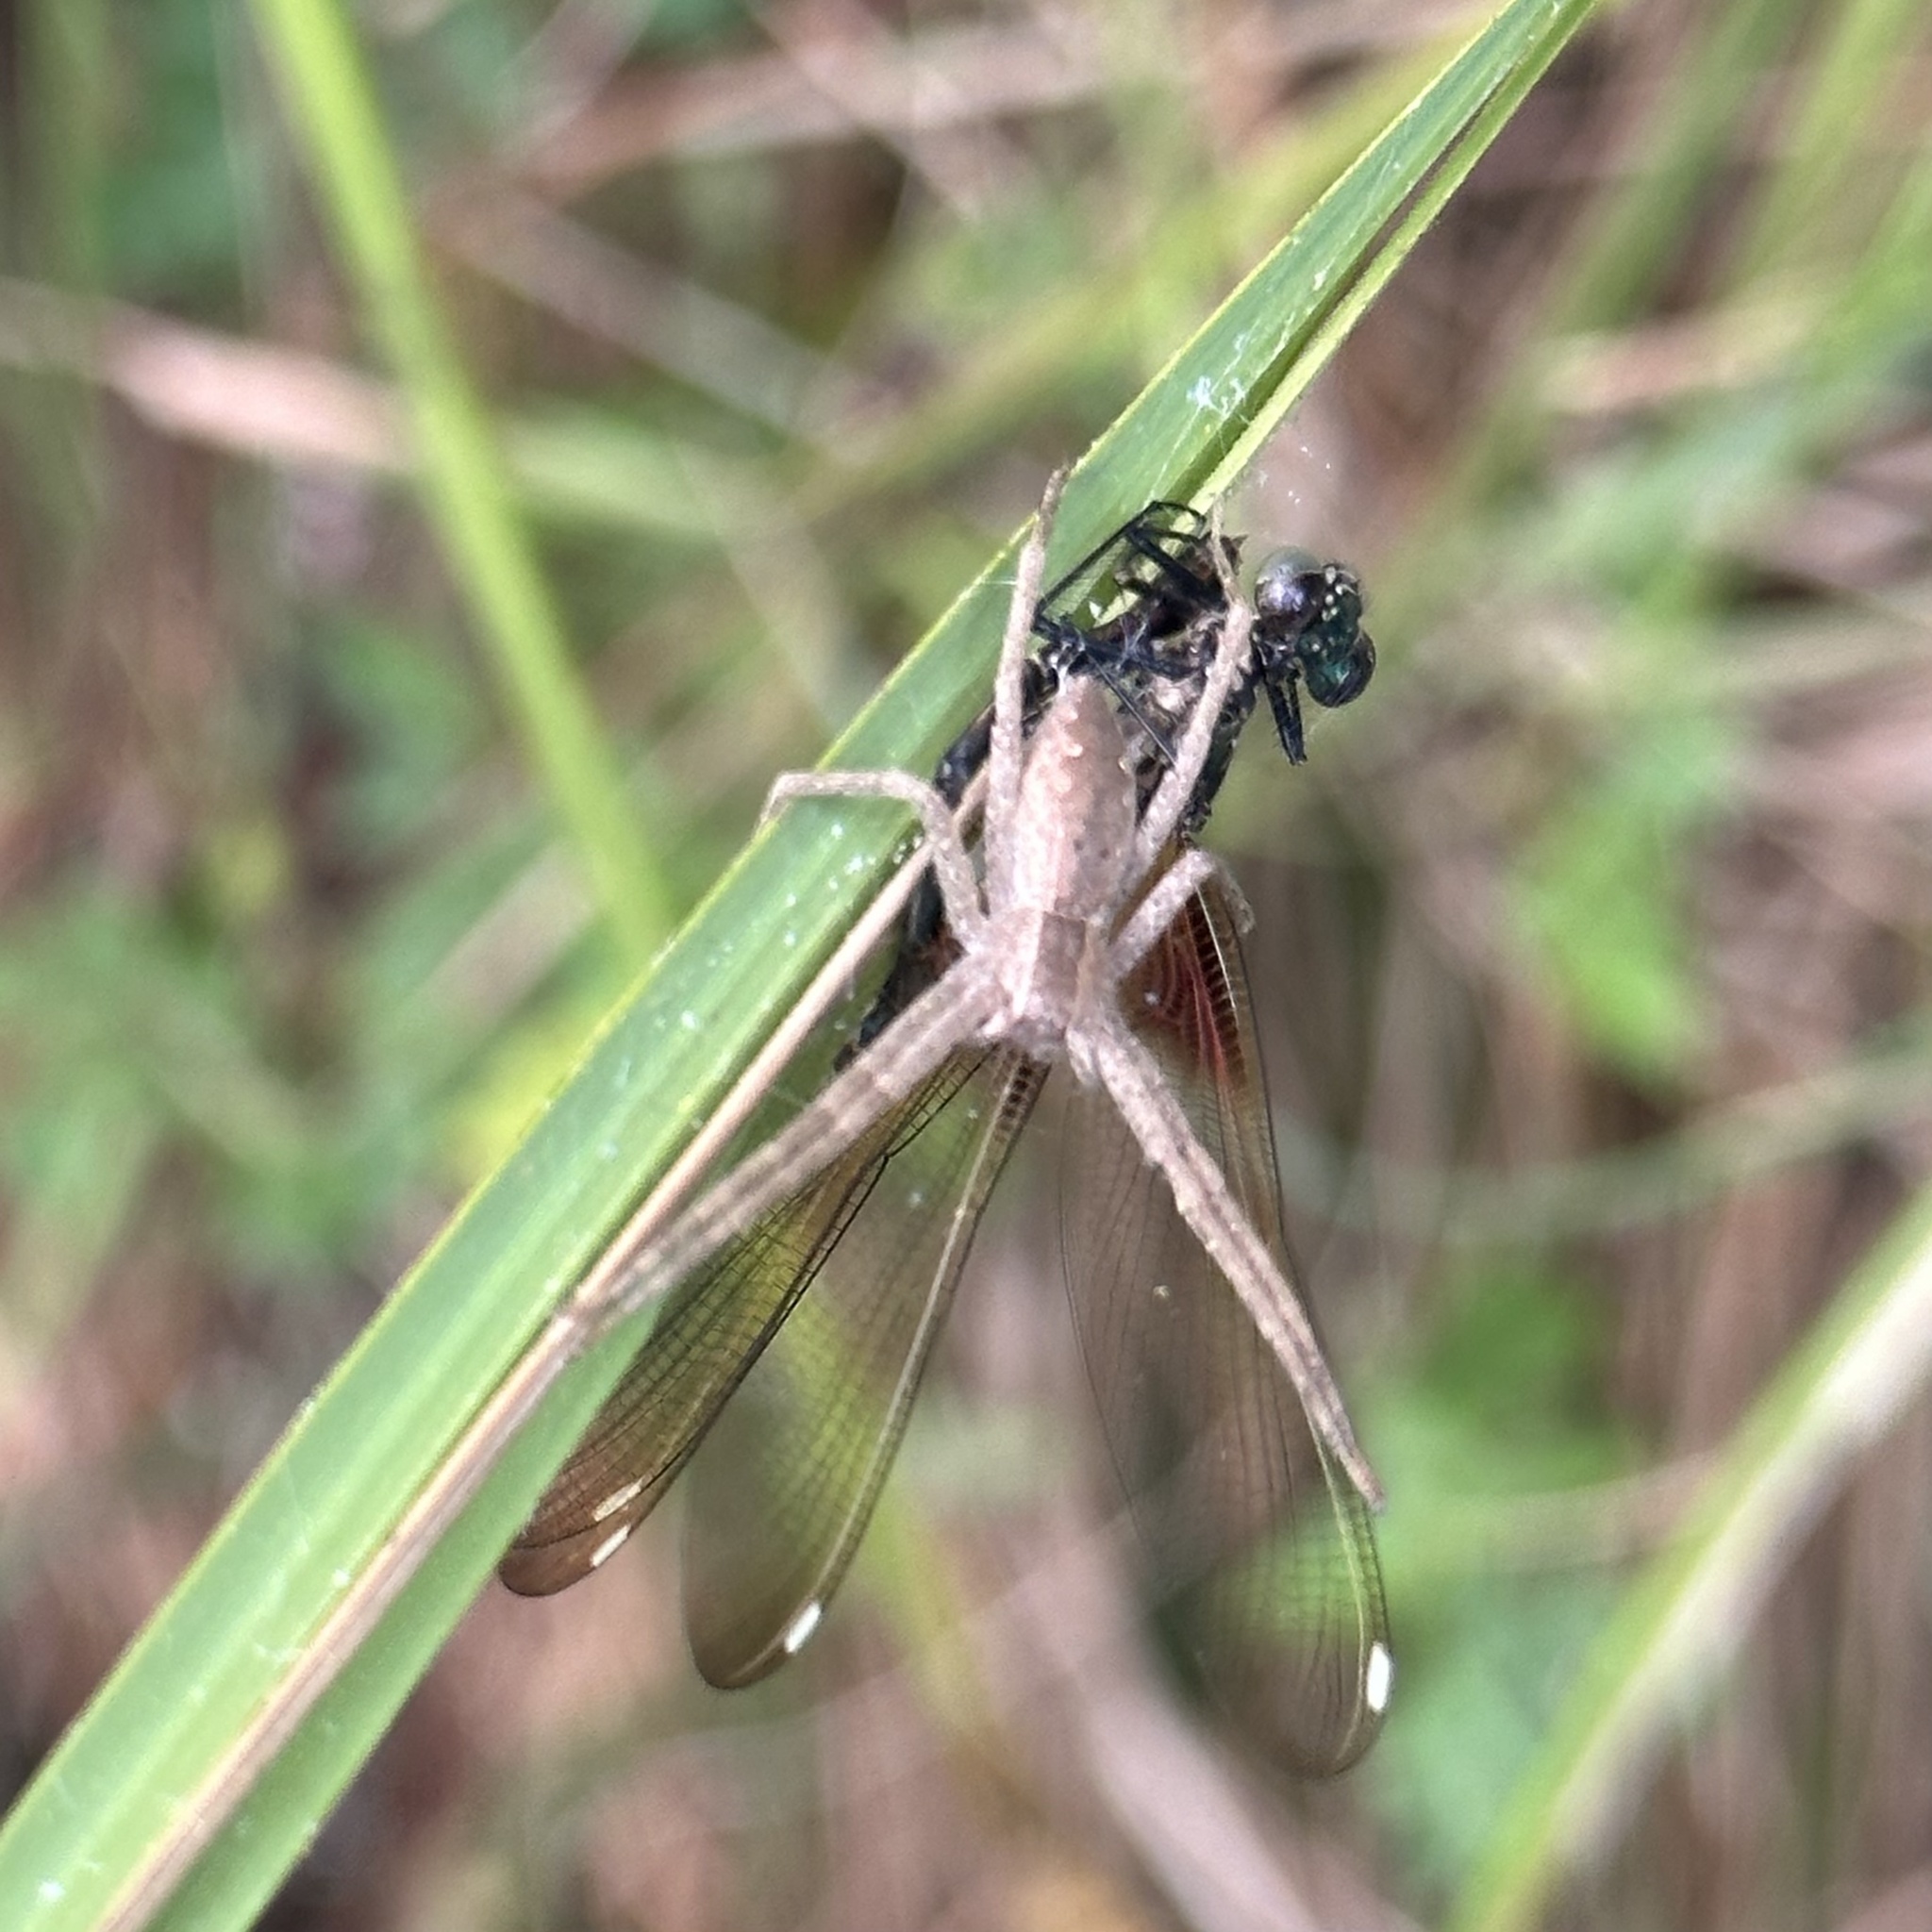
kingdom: Animalia
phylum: Arthropoda
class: Arachnida
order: Araneae
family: Pisauridae
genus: Pisaurina
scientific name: Pisaurina mira
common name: American nursery web spider
